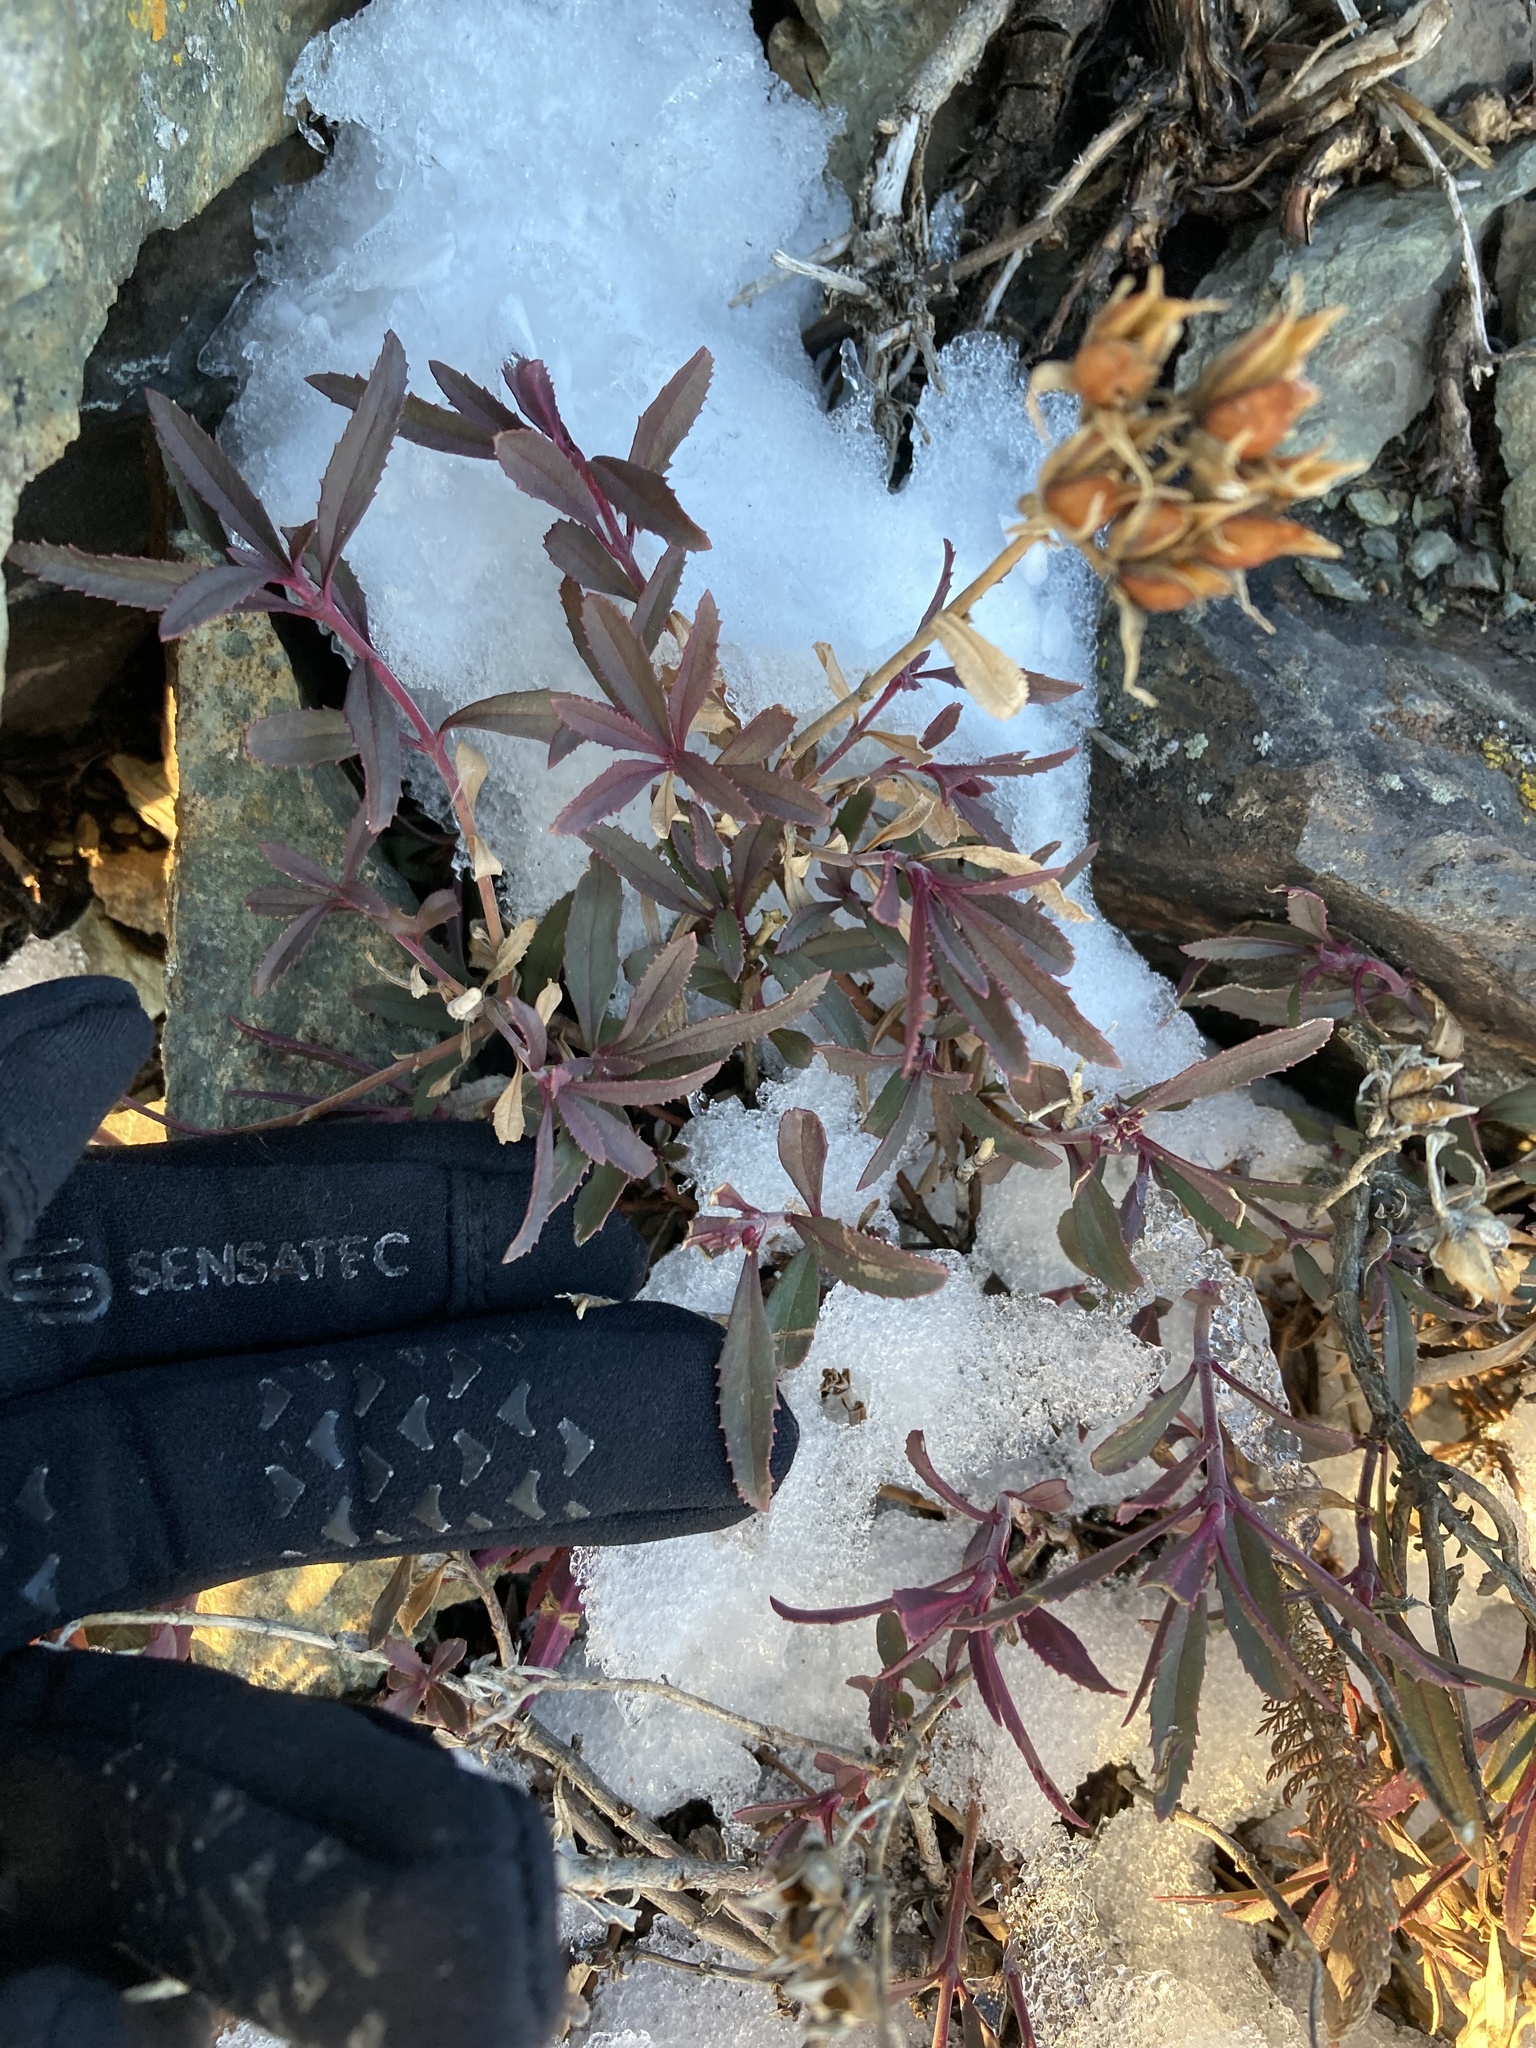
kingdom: Plantae
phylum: Tracheophyta
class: Magnoliopsida
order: Lamiales
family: Plantaginaceae
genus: Penstemon
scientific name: Penstemon fruticosus
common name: Bush penstemon
